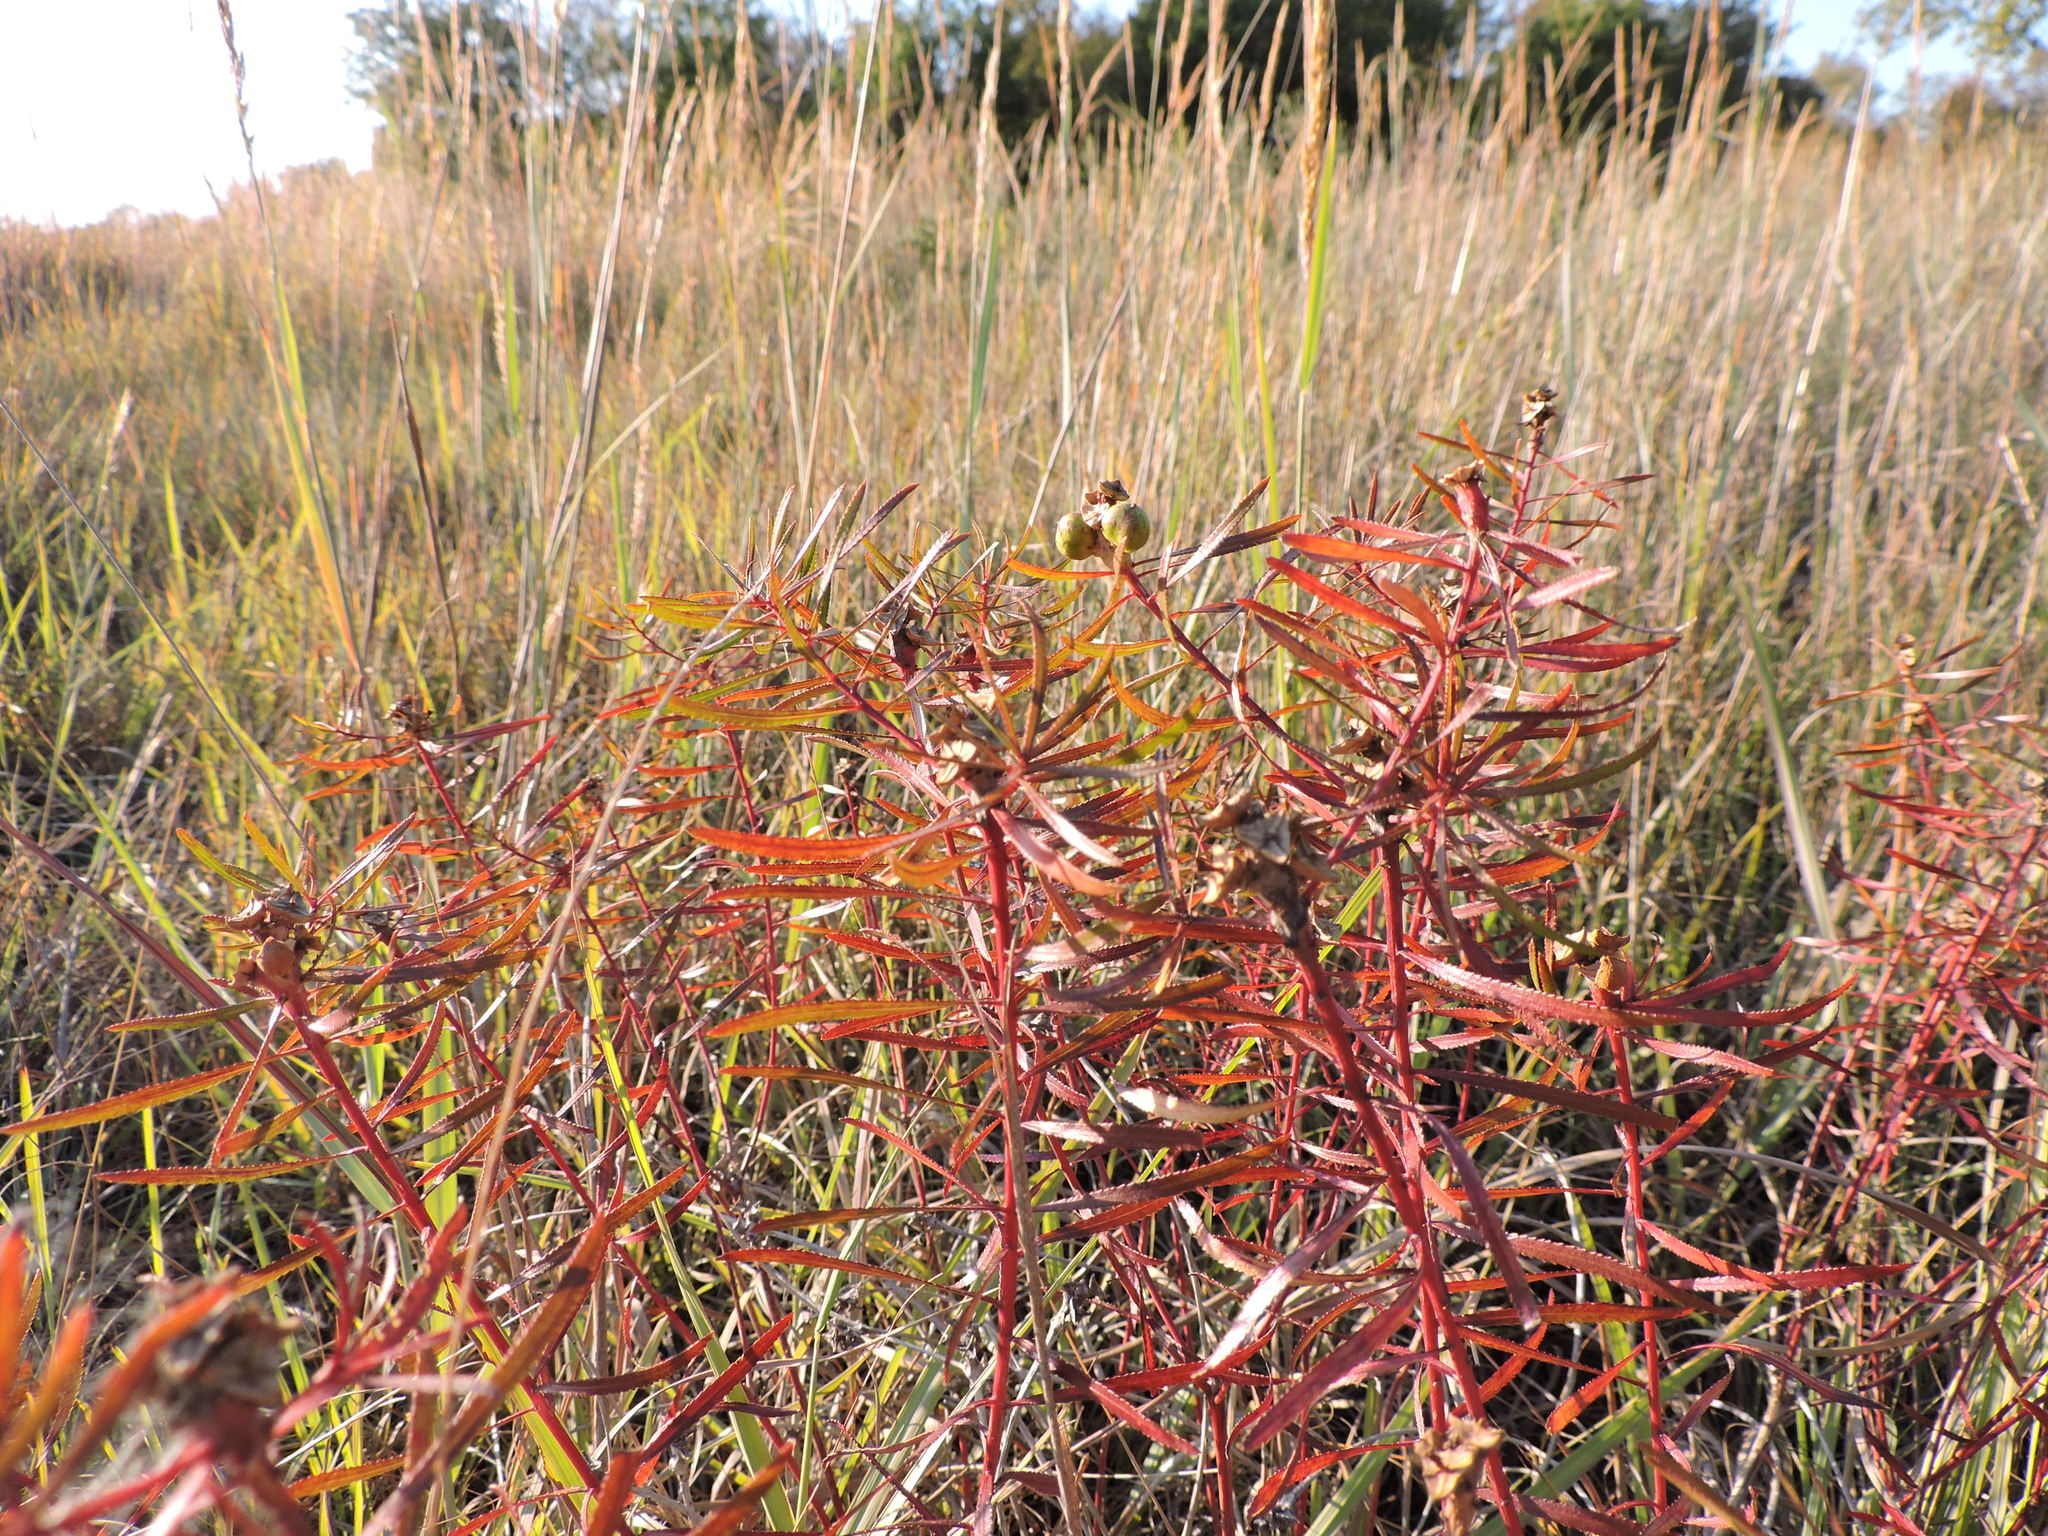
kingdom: Plantae
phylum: Tracheophyta
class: Magnoliopsida
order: Malpighiales
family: Euphorbiaceae
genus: Stillingia
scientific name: Stillingia texana
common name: Texas stillingia
